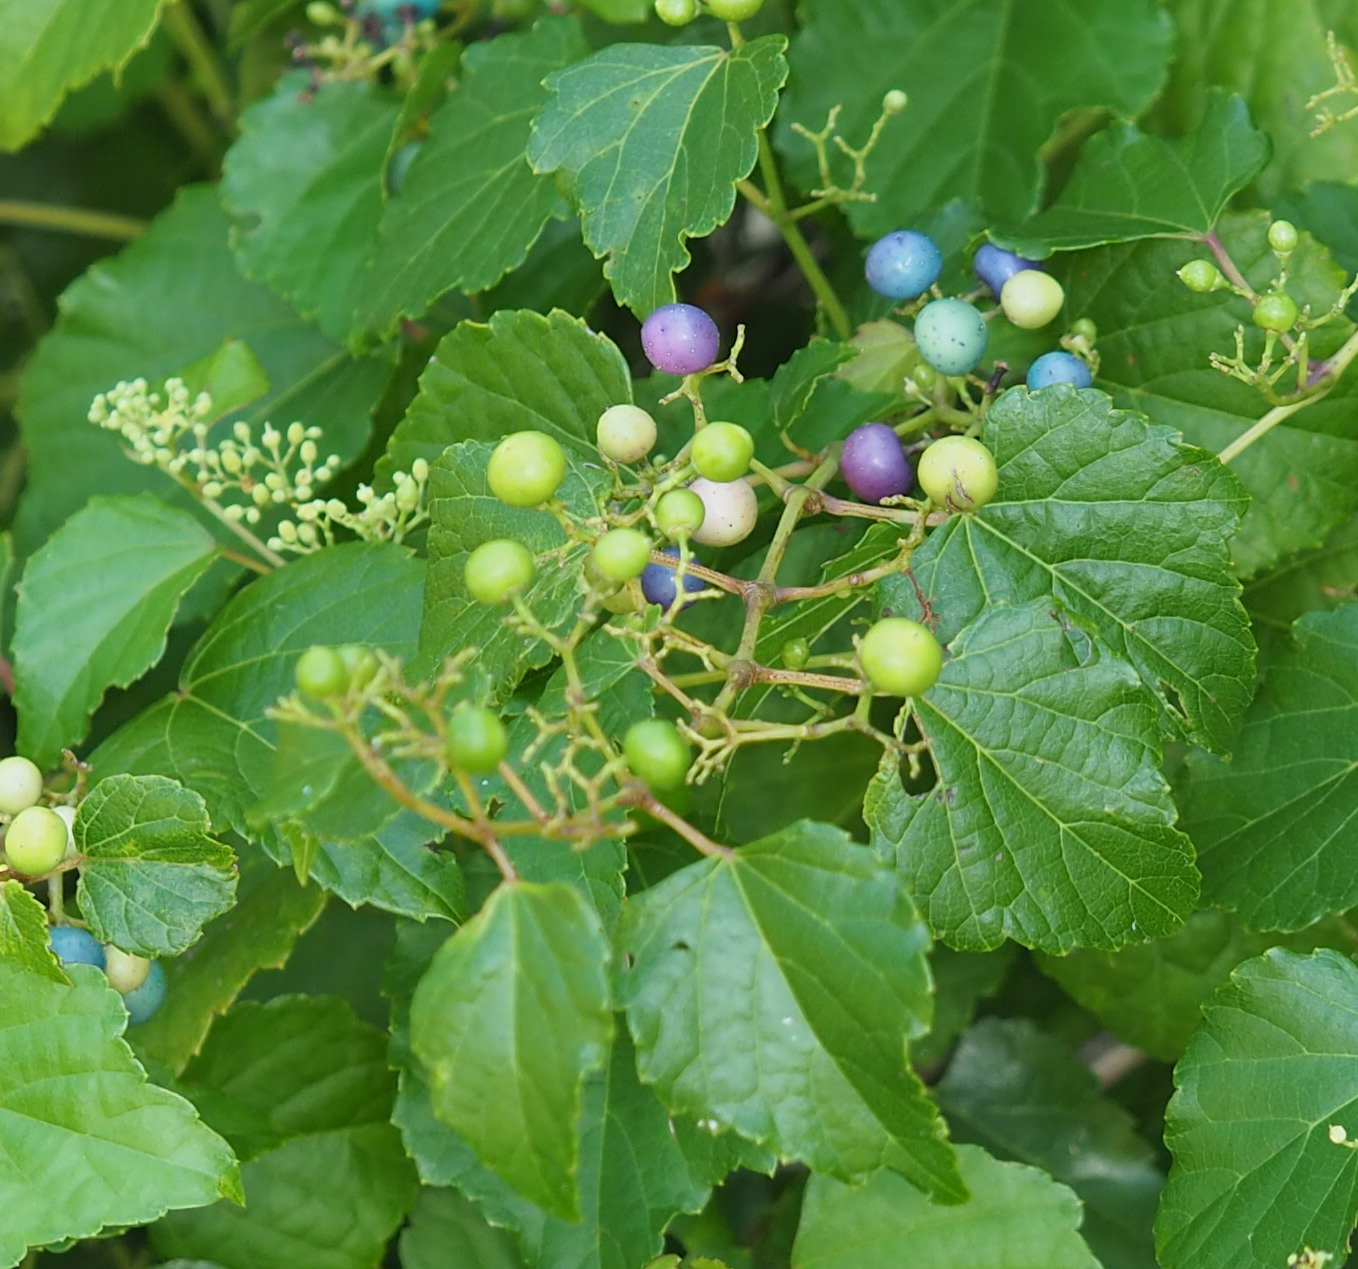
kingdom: Plantae
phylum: Tracheophyta
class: Magnoliopsida
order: Vitales
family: Vitaceae
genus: Ampelopsis
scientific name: Ampelopsis glandulosa
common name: Amur peppervine
